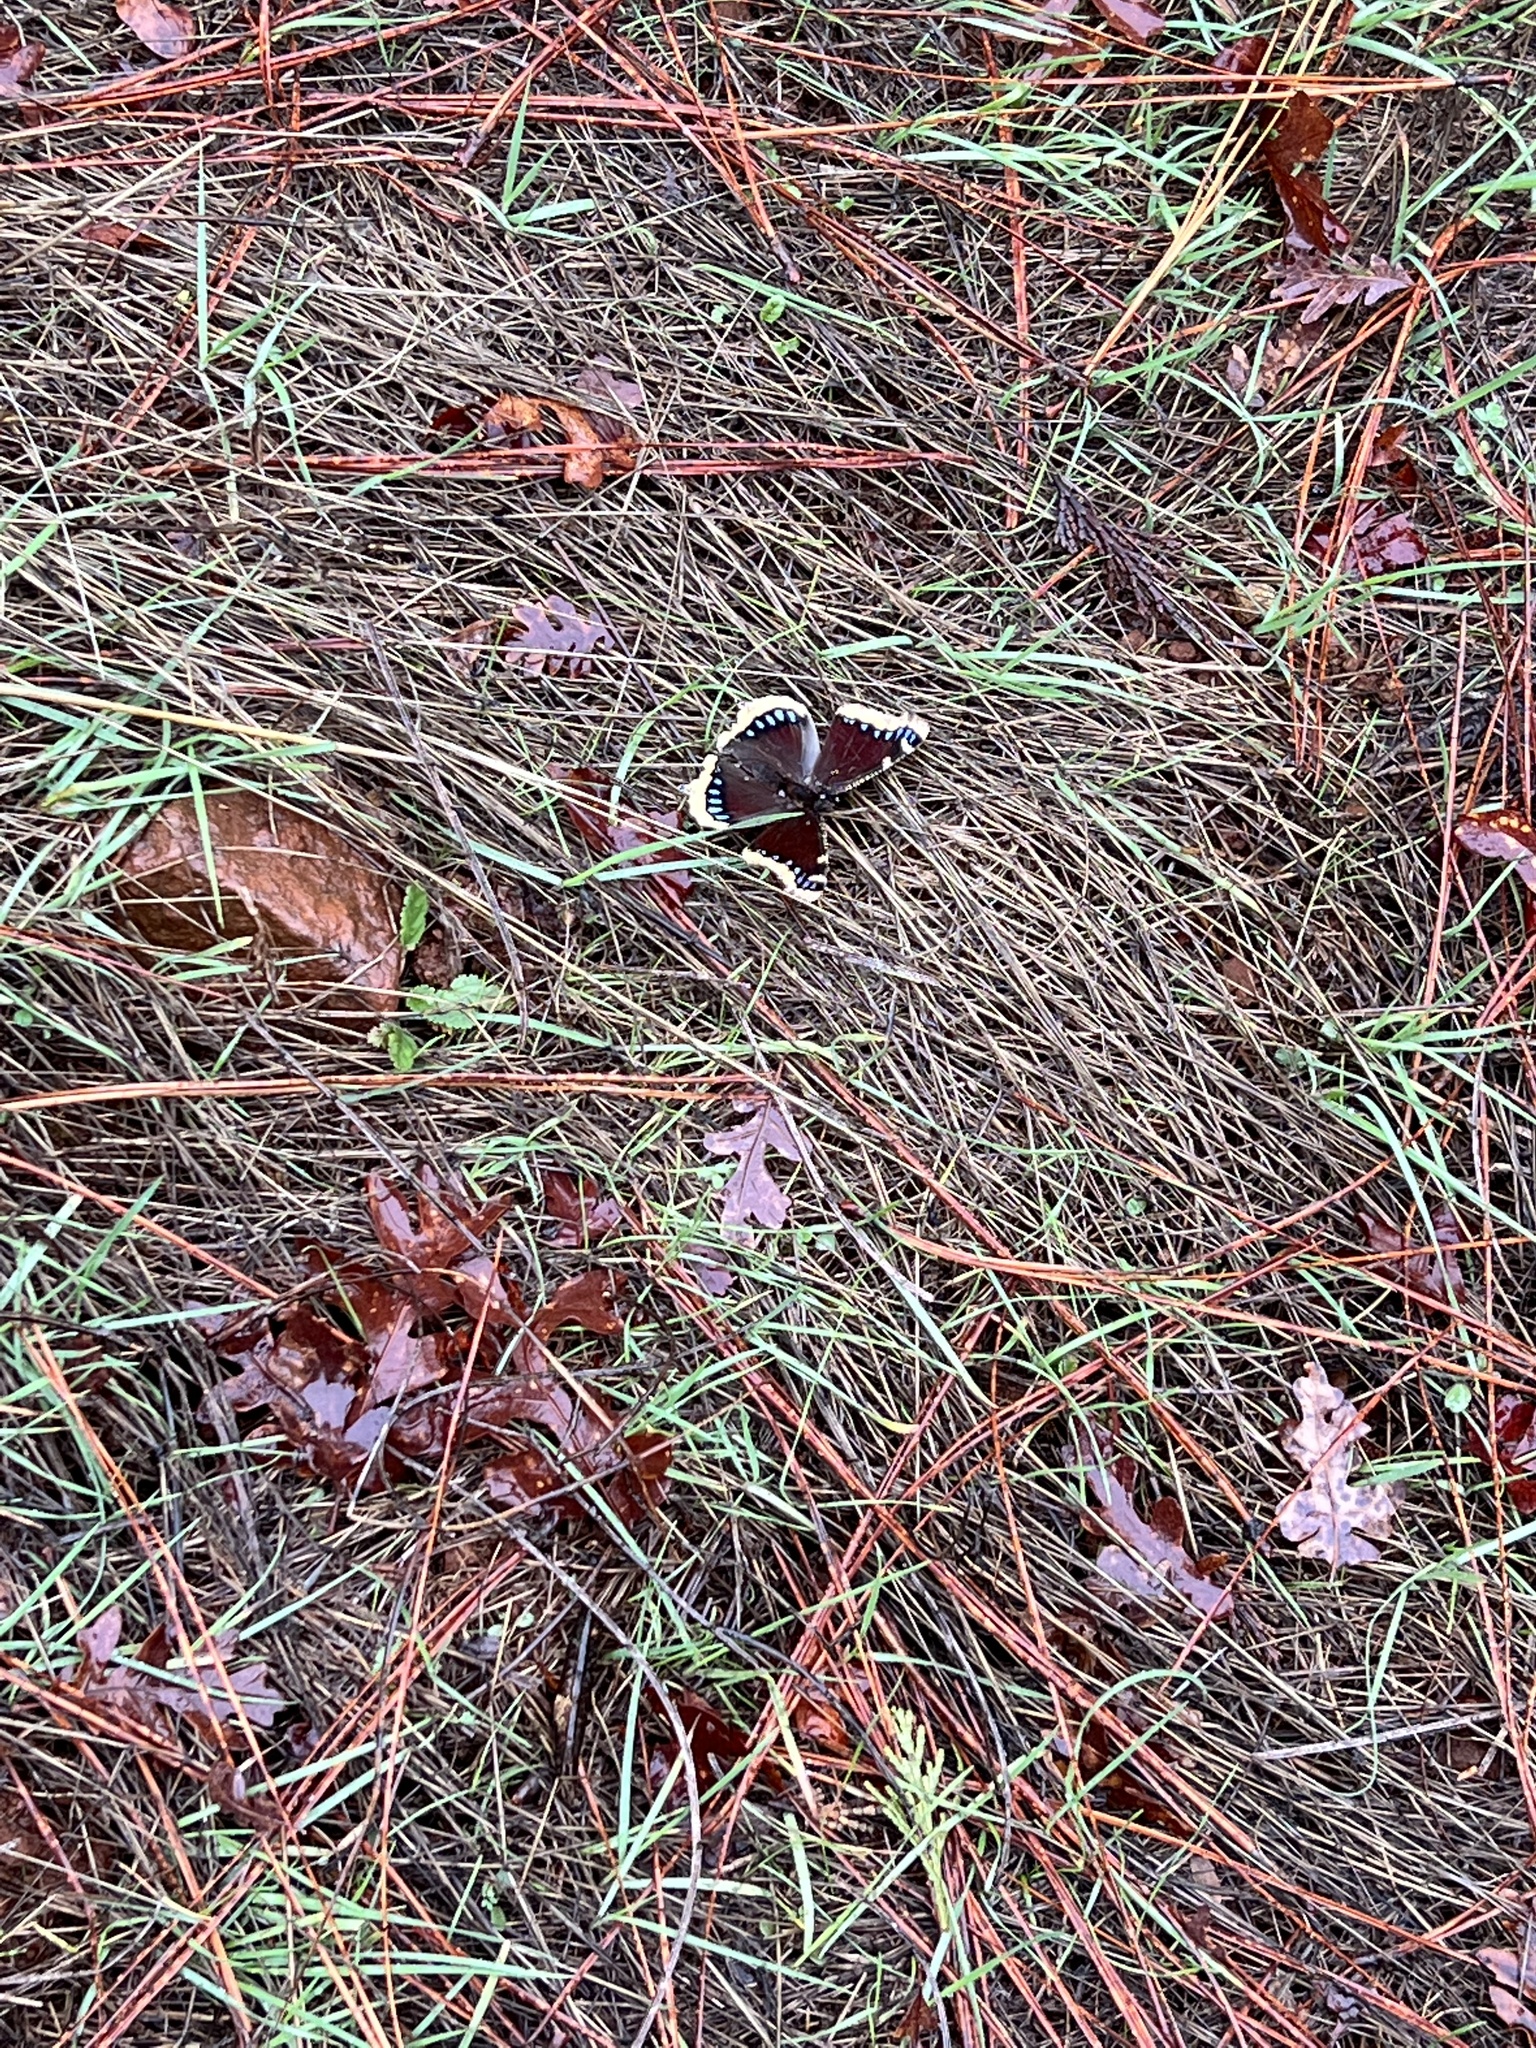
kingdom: Animalia
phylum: Arthropoda
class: Insecta
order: Lepidoptera
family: Nymphalidae
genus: Nymphalis
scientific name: Nymphalis antiopa
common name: Camberwell beauty
